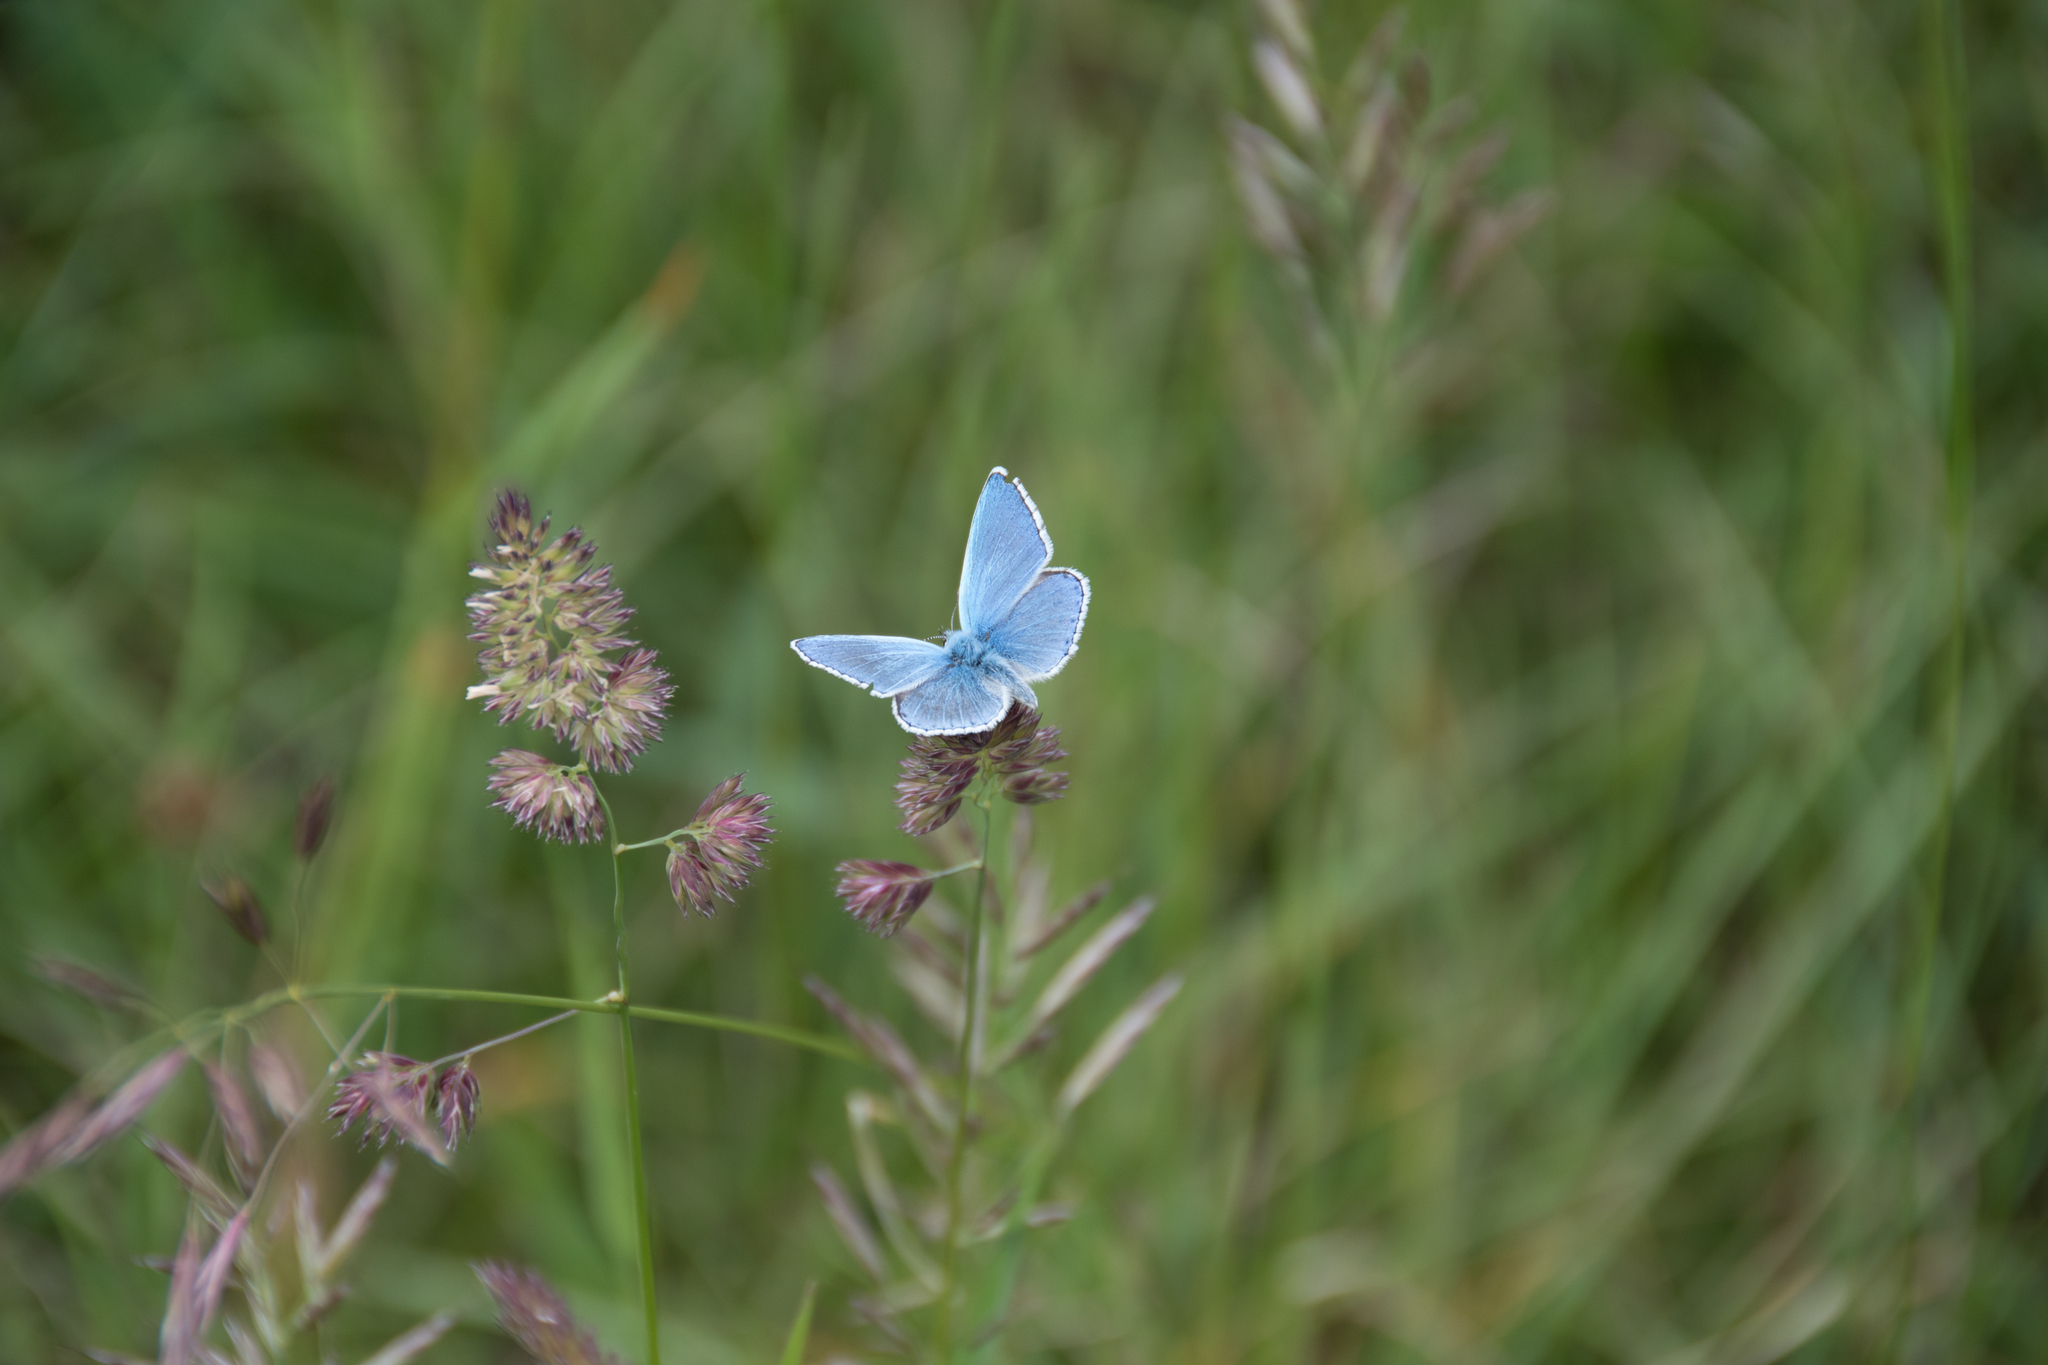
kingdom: Animalia
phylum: Arthropoda
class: Insecta
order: Lepidoptera
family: Lycaenidae
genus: Lysandra
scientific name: Lysandra bellargus
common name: Adonis blue
